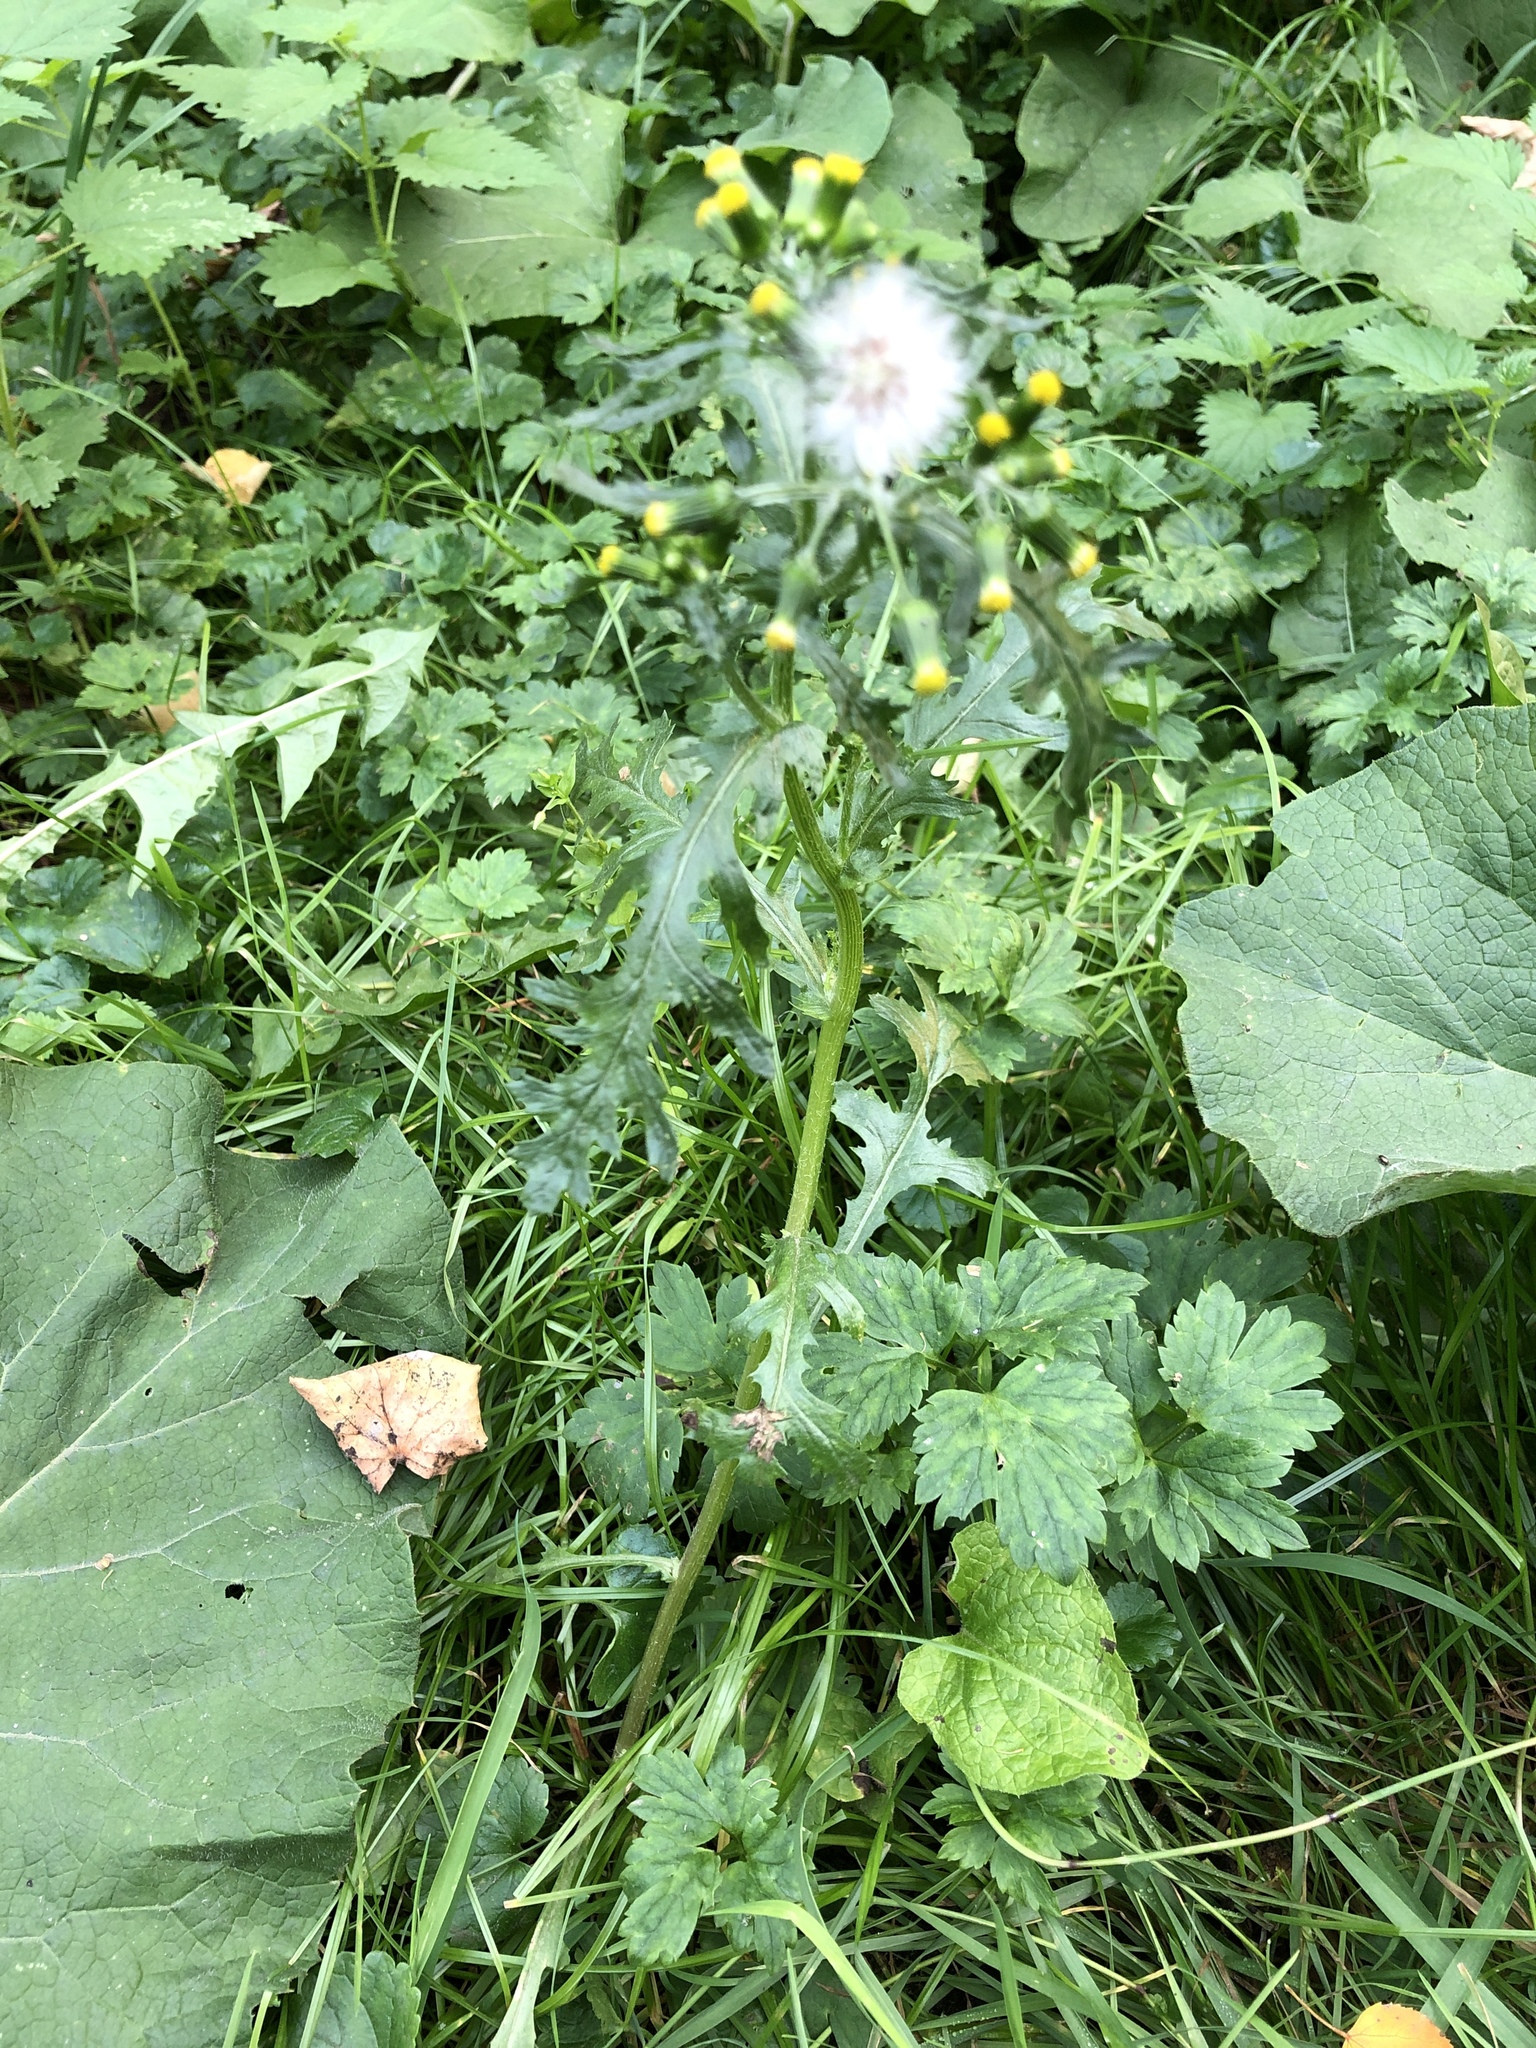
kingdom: Plantae
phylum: Tracheophyta
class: Magnoliopsida
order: Asterales
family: Asteraceae
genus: Senecio
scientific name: Senecio vulgaris
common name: Old-man-in-the-spring
